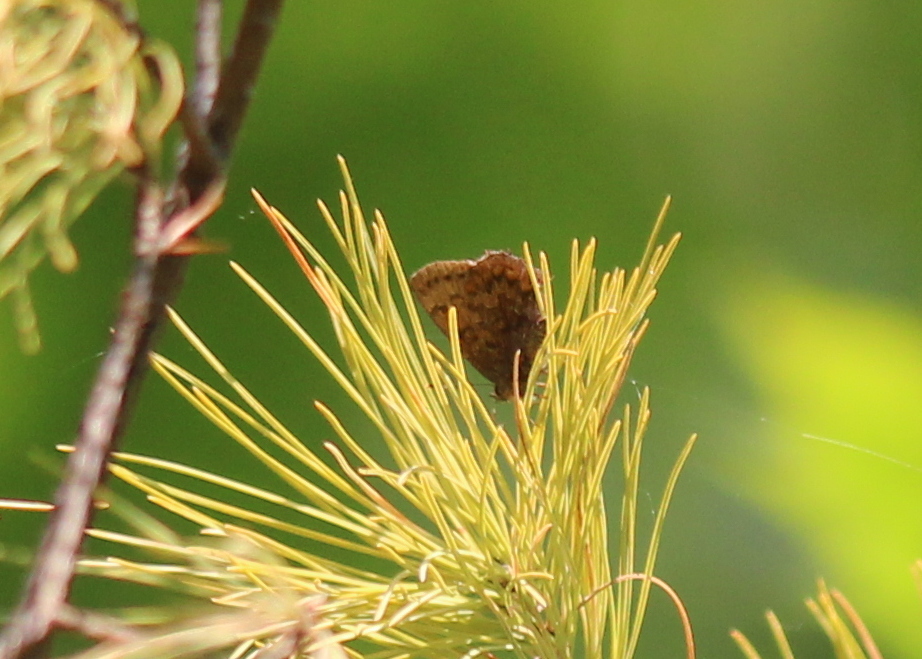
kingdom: Animalia
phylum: Arthropoda
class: Insecta
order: Lepidoptera
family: Lycaenidae
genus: Incisalia
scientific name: Incisalia niphon
